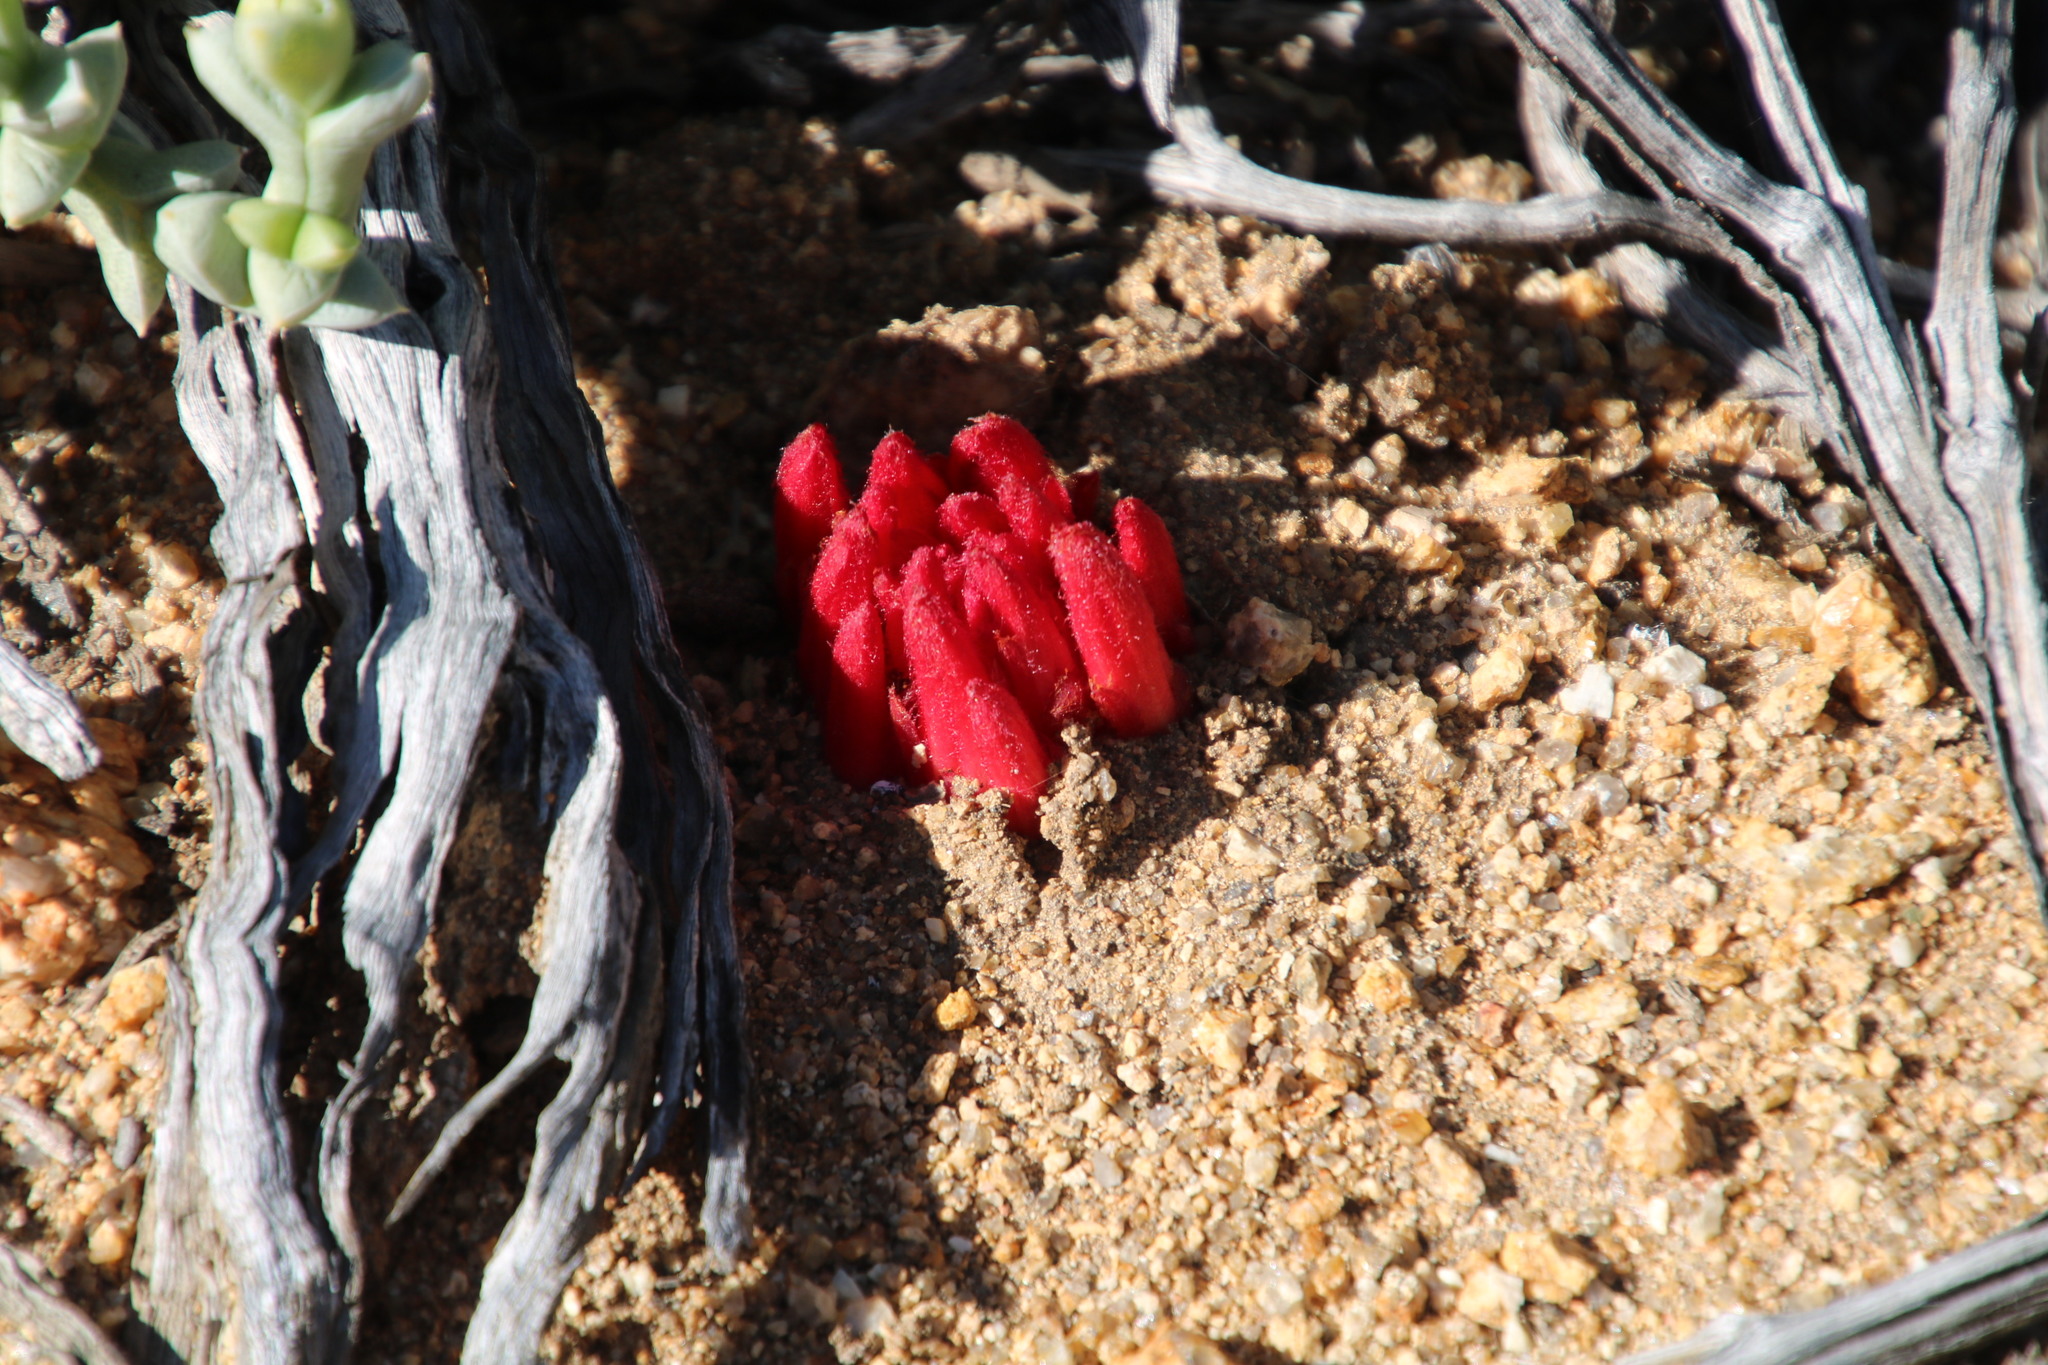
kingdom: Plantae
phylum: Tracheophyta
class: Magnoliopsida
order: Lamiales
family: Orobanchaceae
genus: Hyobanche
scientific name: Hyobanche glabrata
